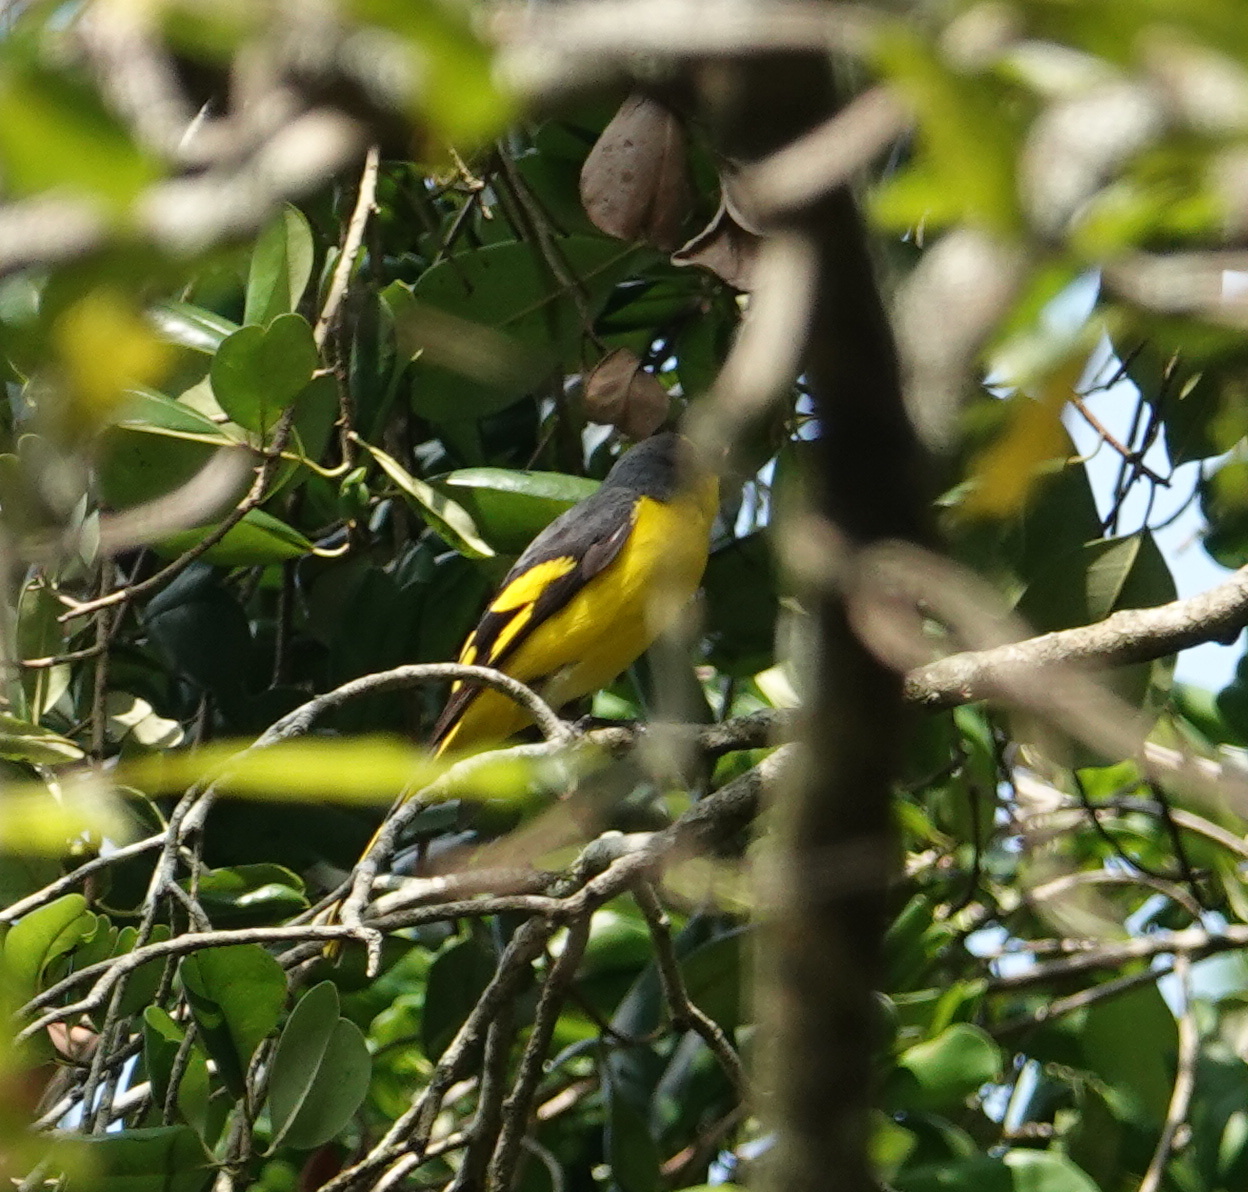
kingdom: Animalia
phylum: Chordata
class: Aves
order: Passeriformes
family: Campephagidae
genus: Pericrocotus
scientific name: Pericrocotus flammeus
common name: Orange minivet
